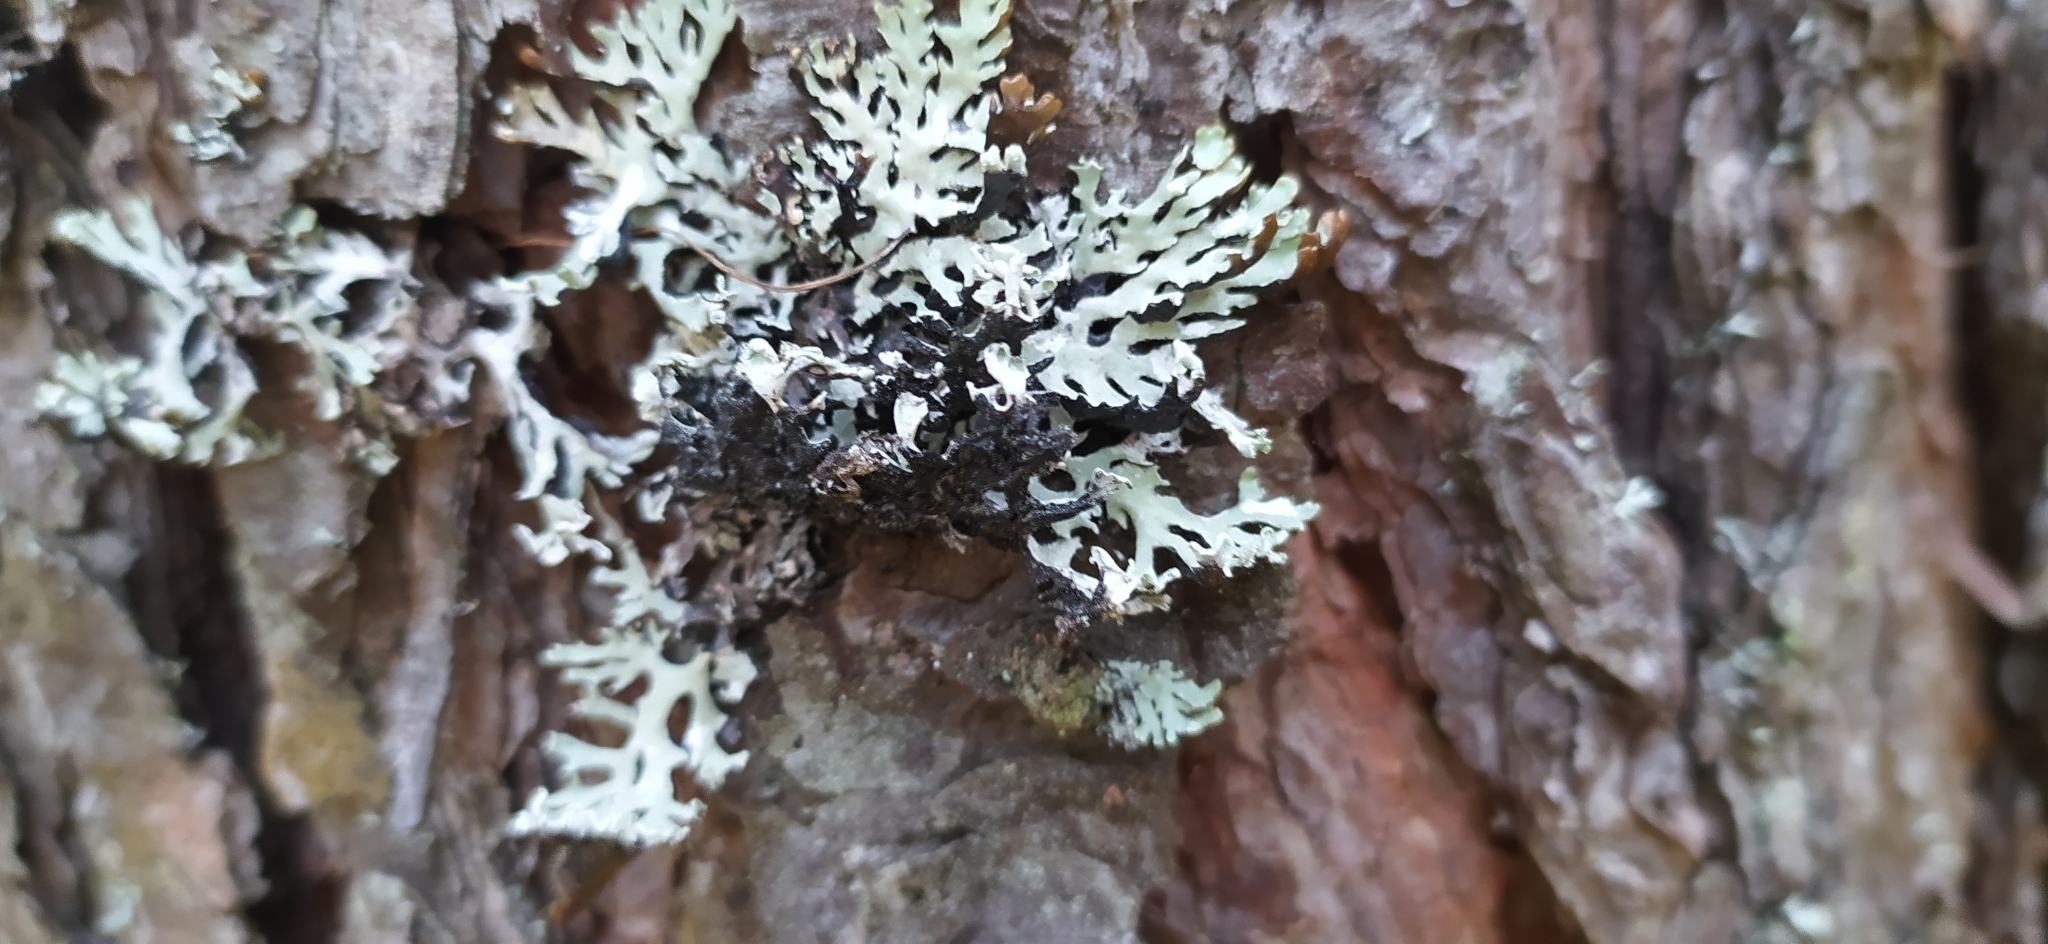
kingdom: Fungi
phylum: Ascomycota
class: Lecanoromycetes
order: Lecanorales
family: Parmeliaceae
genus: Hypogymnia
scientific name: Hypogymnia physodes
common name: Dark crottle
